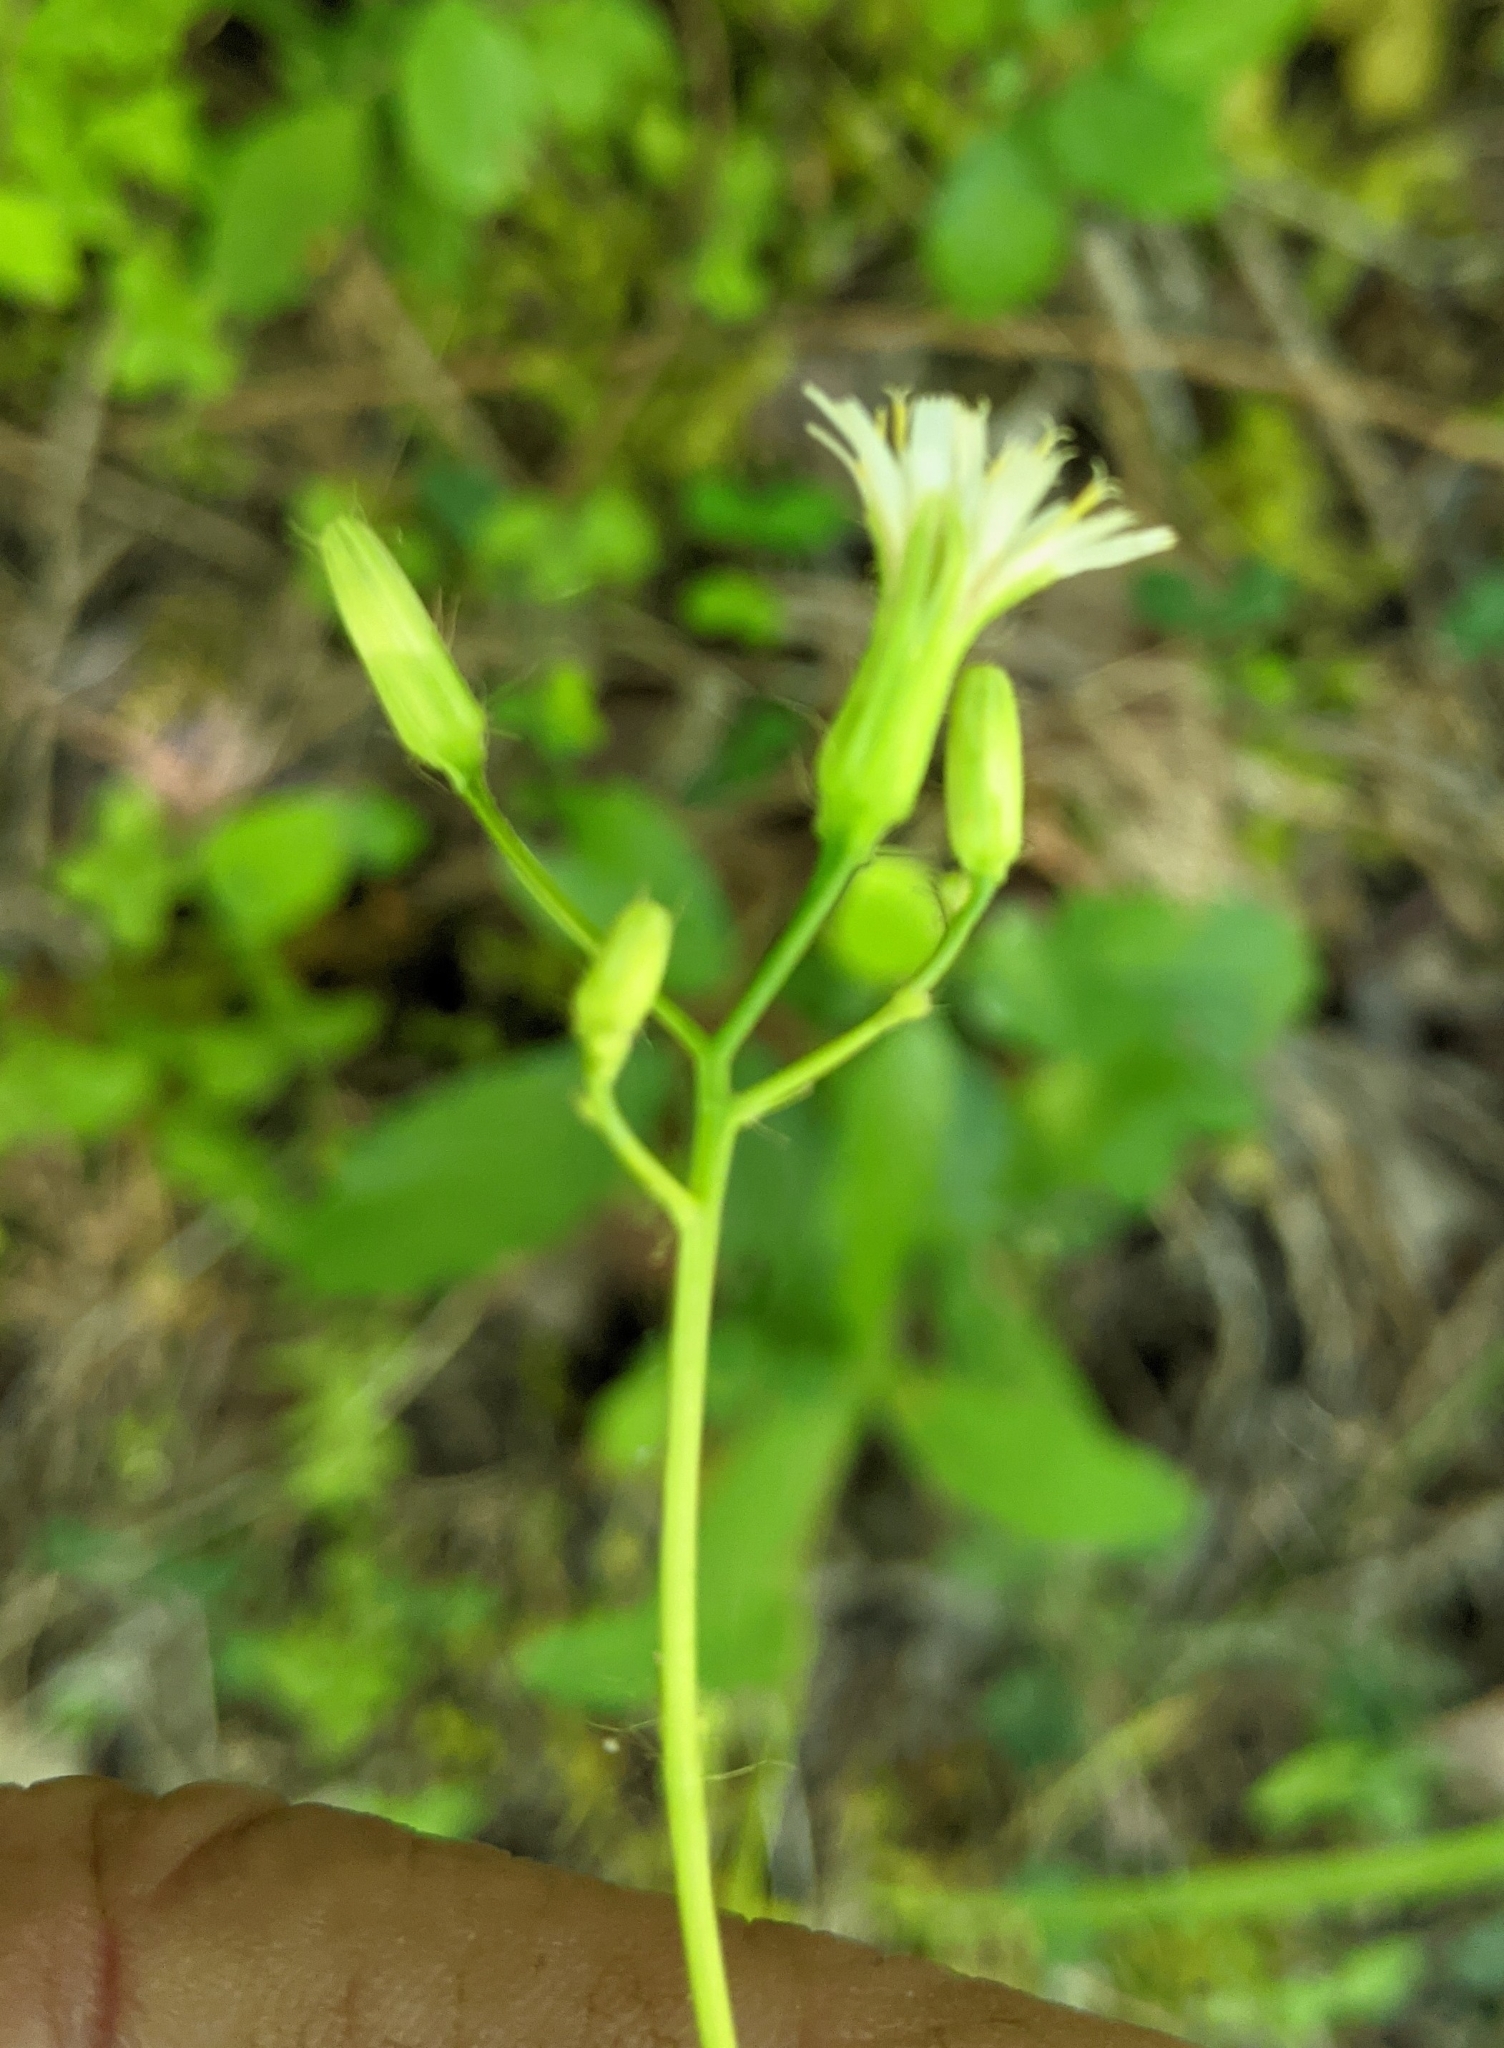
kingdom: Plantae
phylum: Tracheophyta
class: Magnoliopsida
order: Asterales
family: Asteraceae
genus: Hieracium
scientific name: Hieracium albiflorum
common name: White hawkweed
